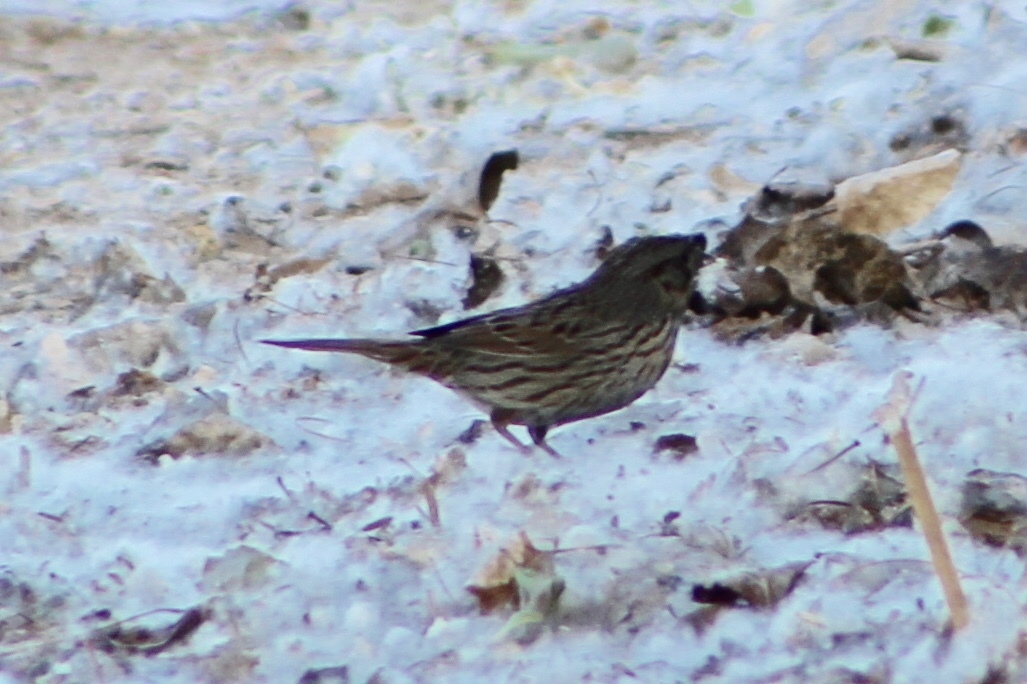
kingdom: Animalia
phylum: Chordata
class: Aves
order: Passeriformes
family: Passerellidae
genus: Melospiza
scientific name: Melospiza melodia
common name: Song sparrow
